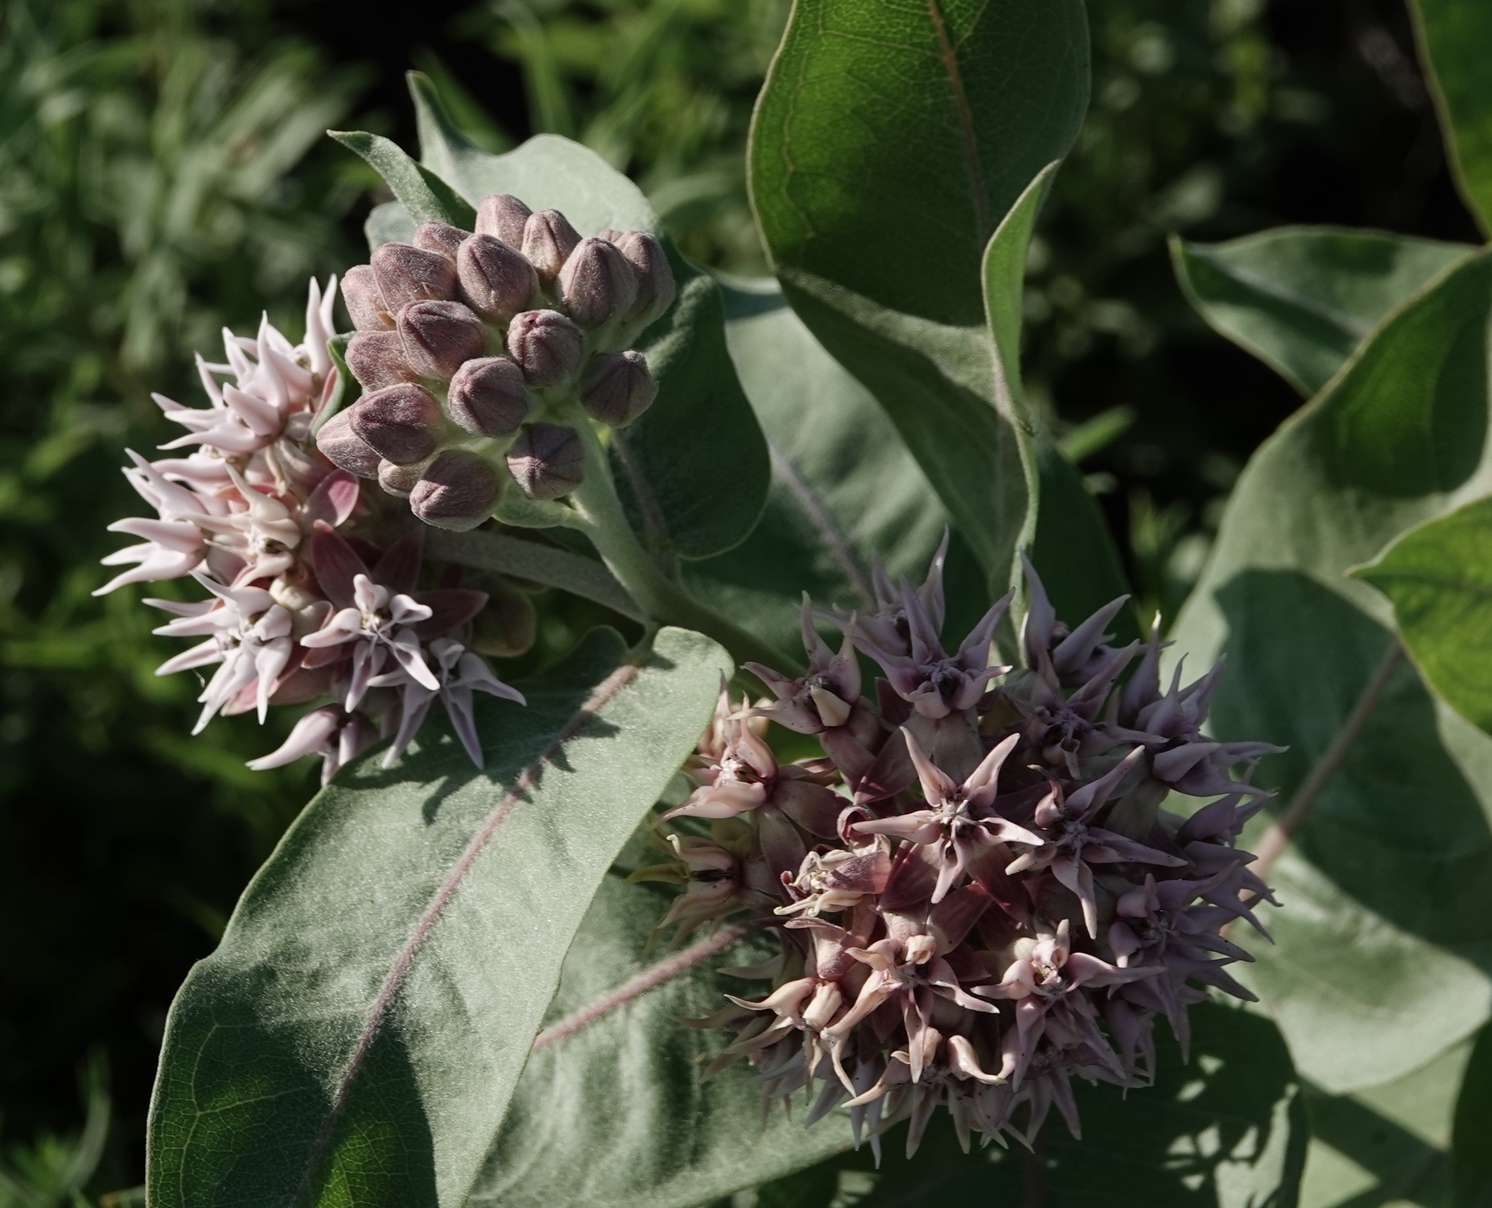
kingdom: Plantae
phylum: Tracheophyta
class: Magnoliopsida
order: Gentianales
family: Apocynaceae
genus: Asclepias
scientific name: Asclepias speciosa
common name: Showy milkweed
